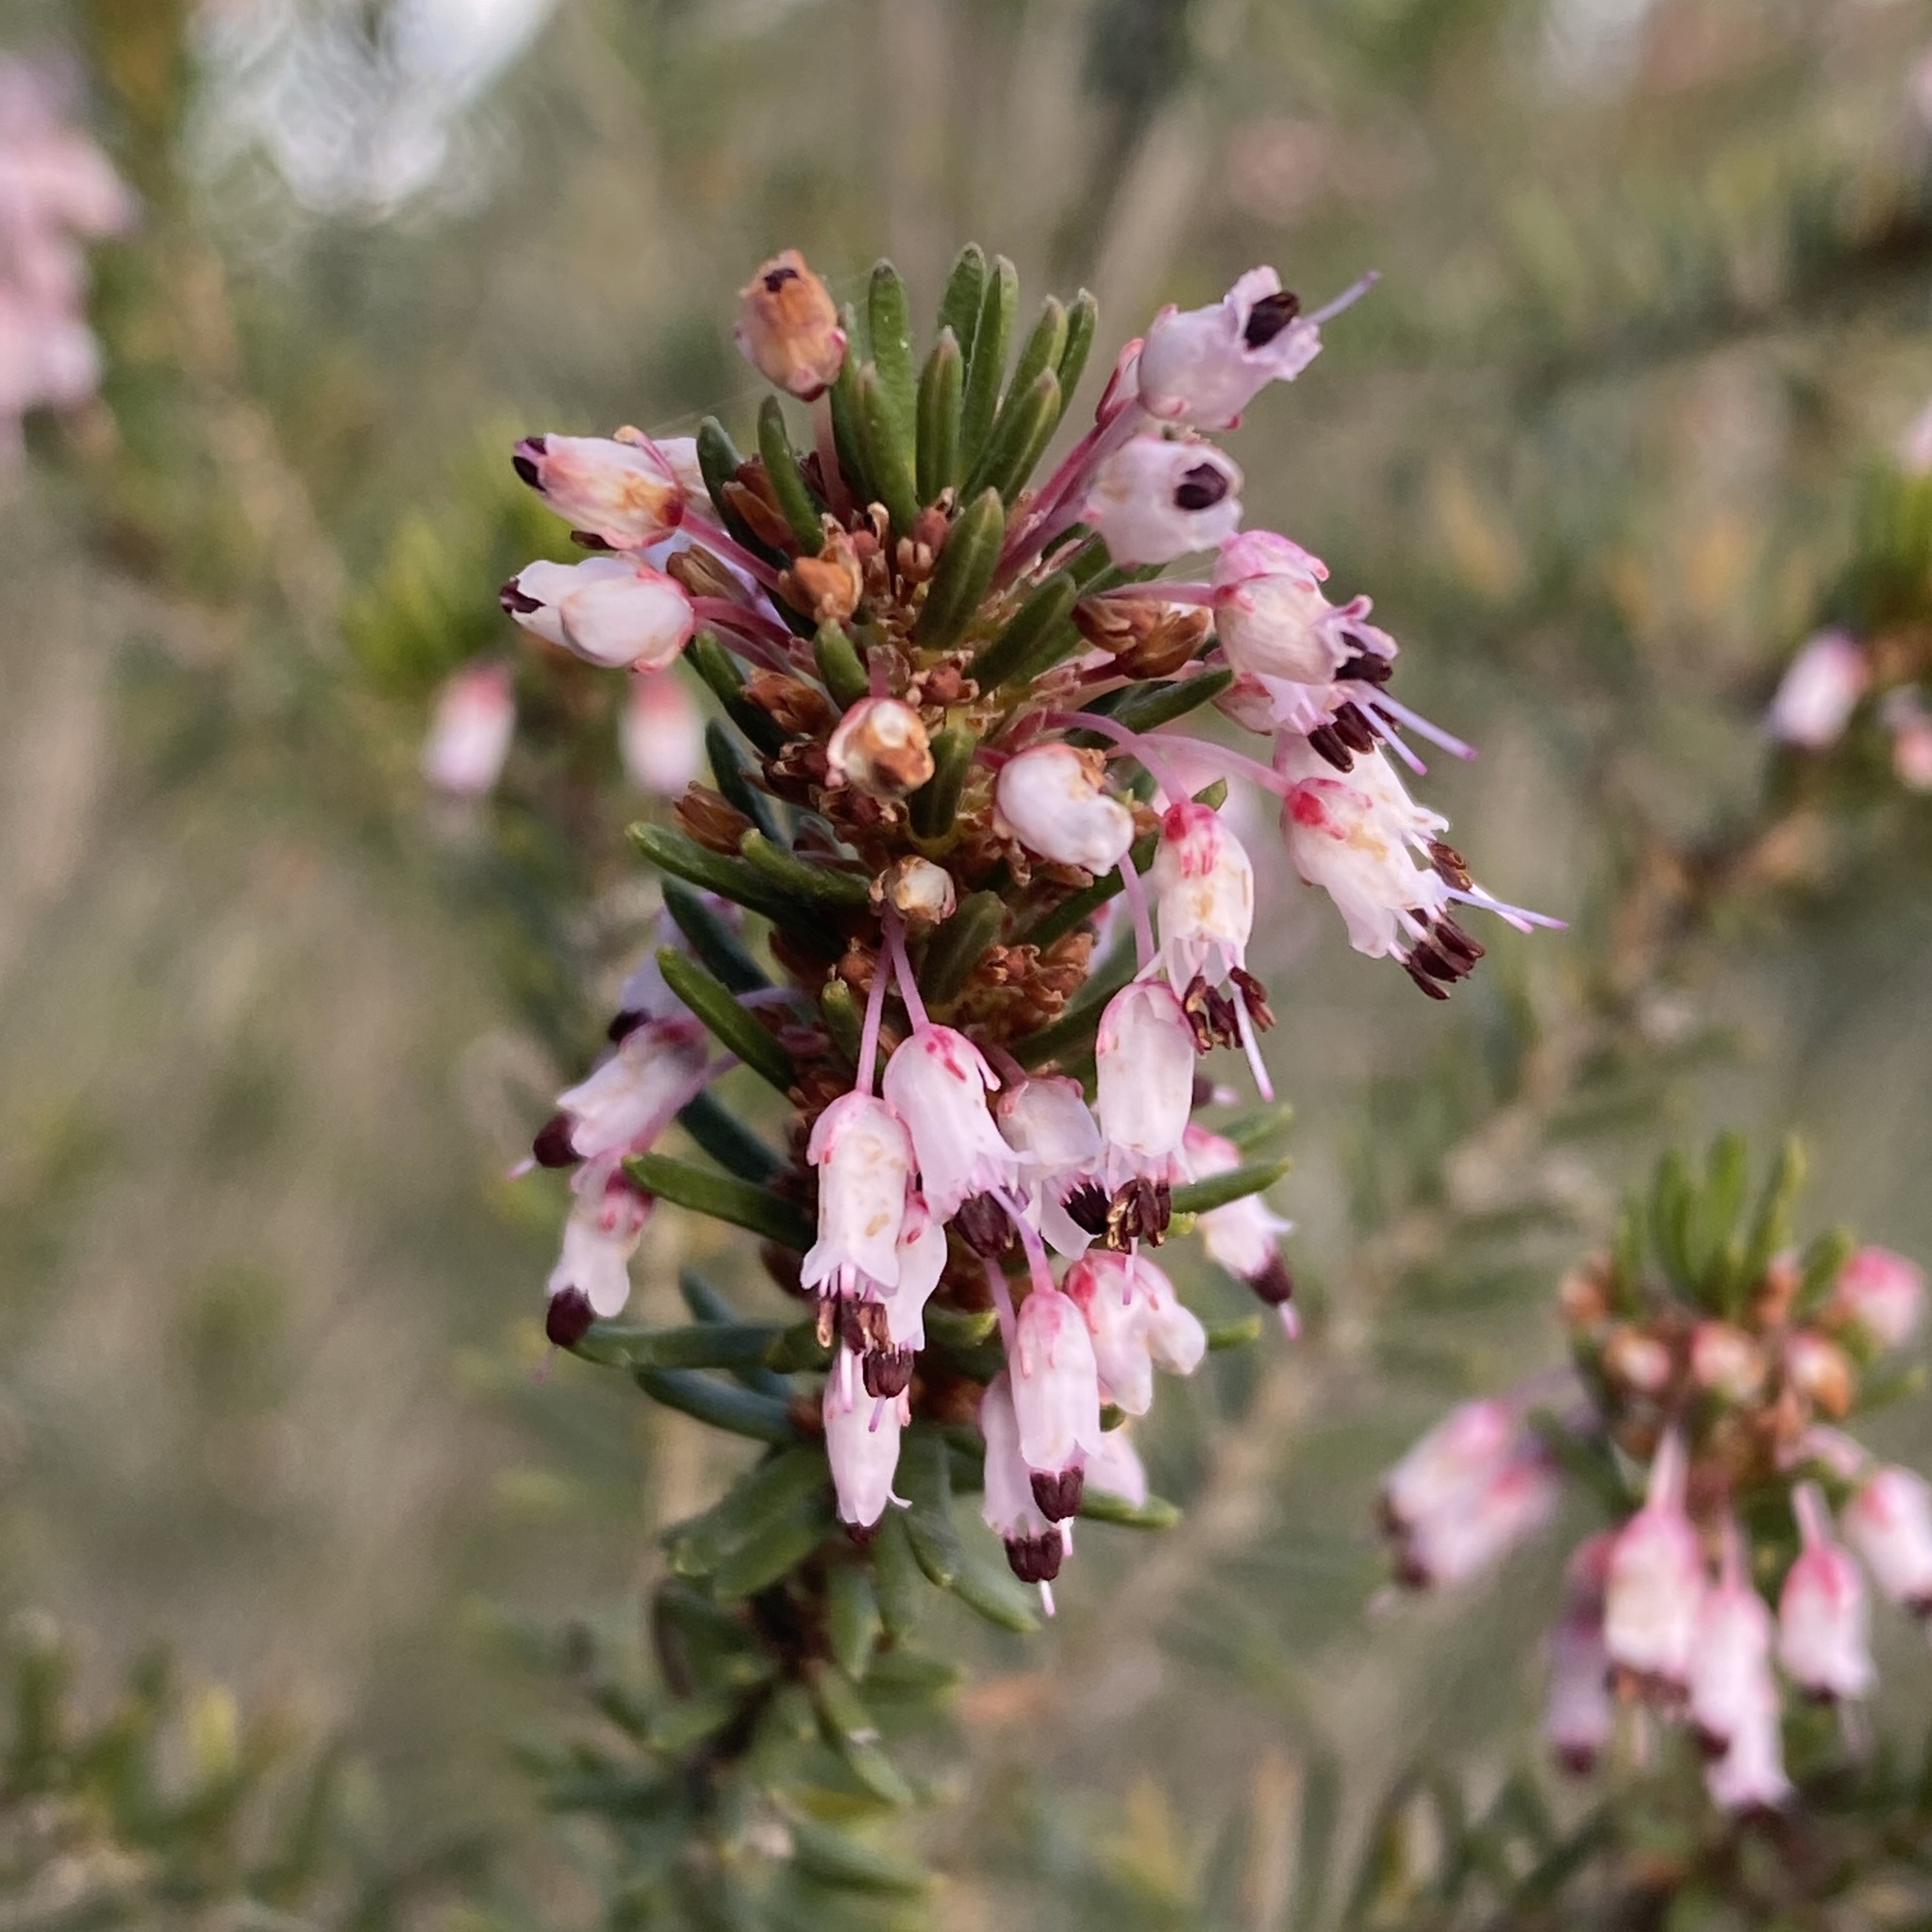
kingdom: Plantae
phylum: Tracheophyta
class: Magnoliopsida
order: Ericales
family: Ericaceae
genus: Erica
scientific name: Erica multiflora
